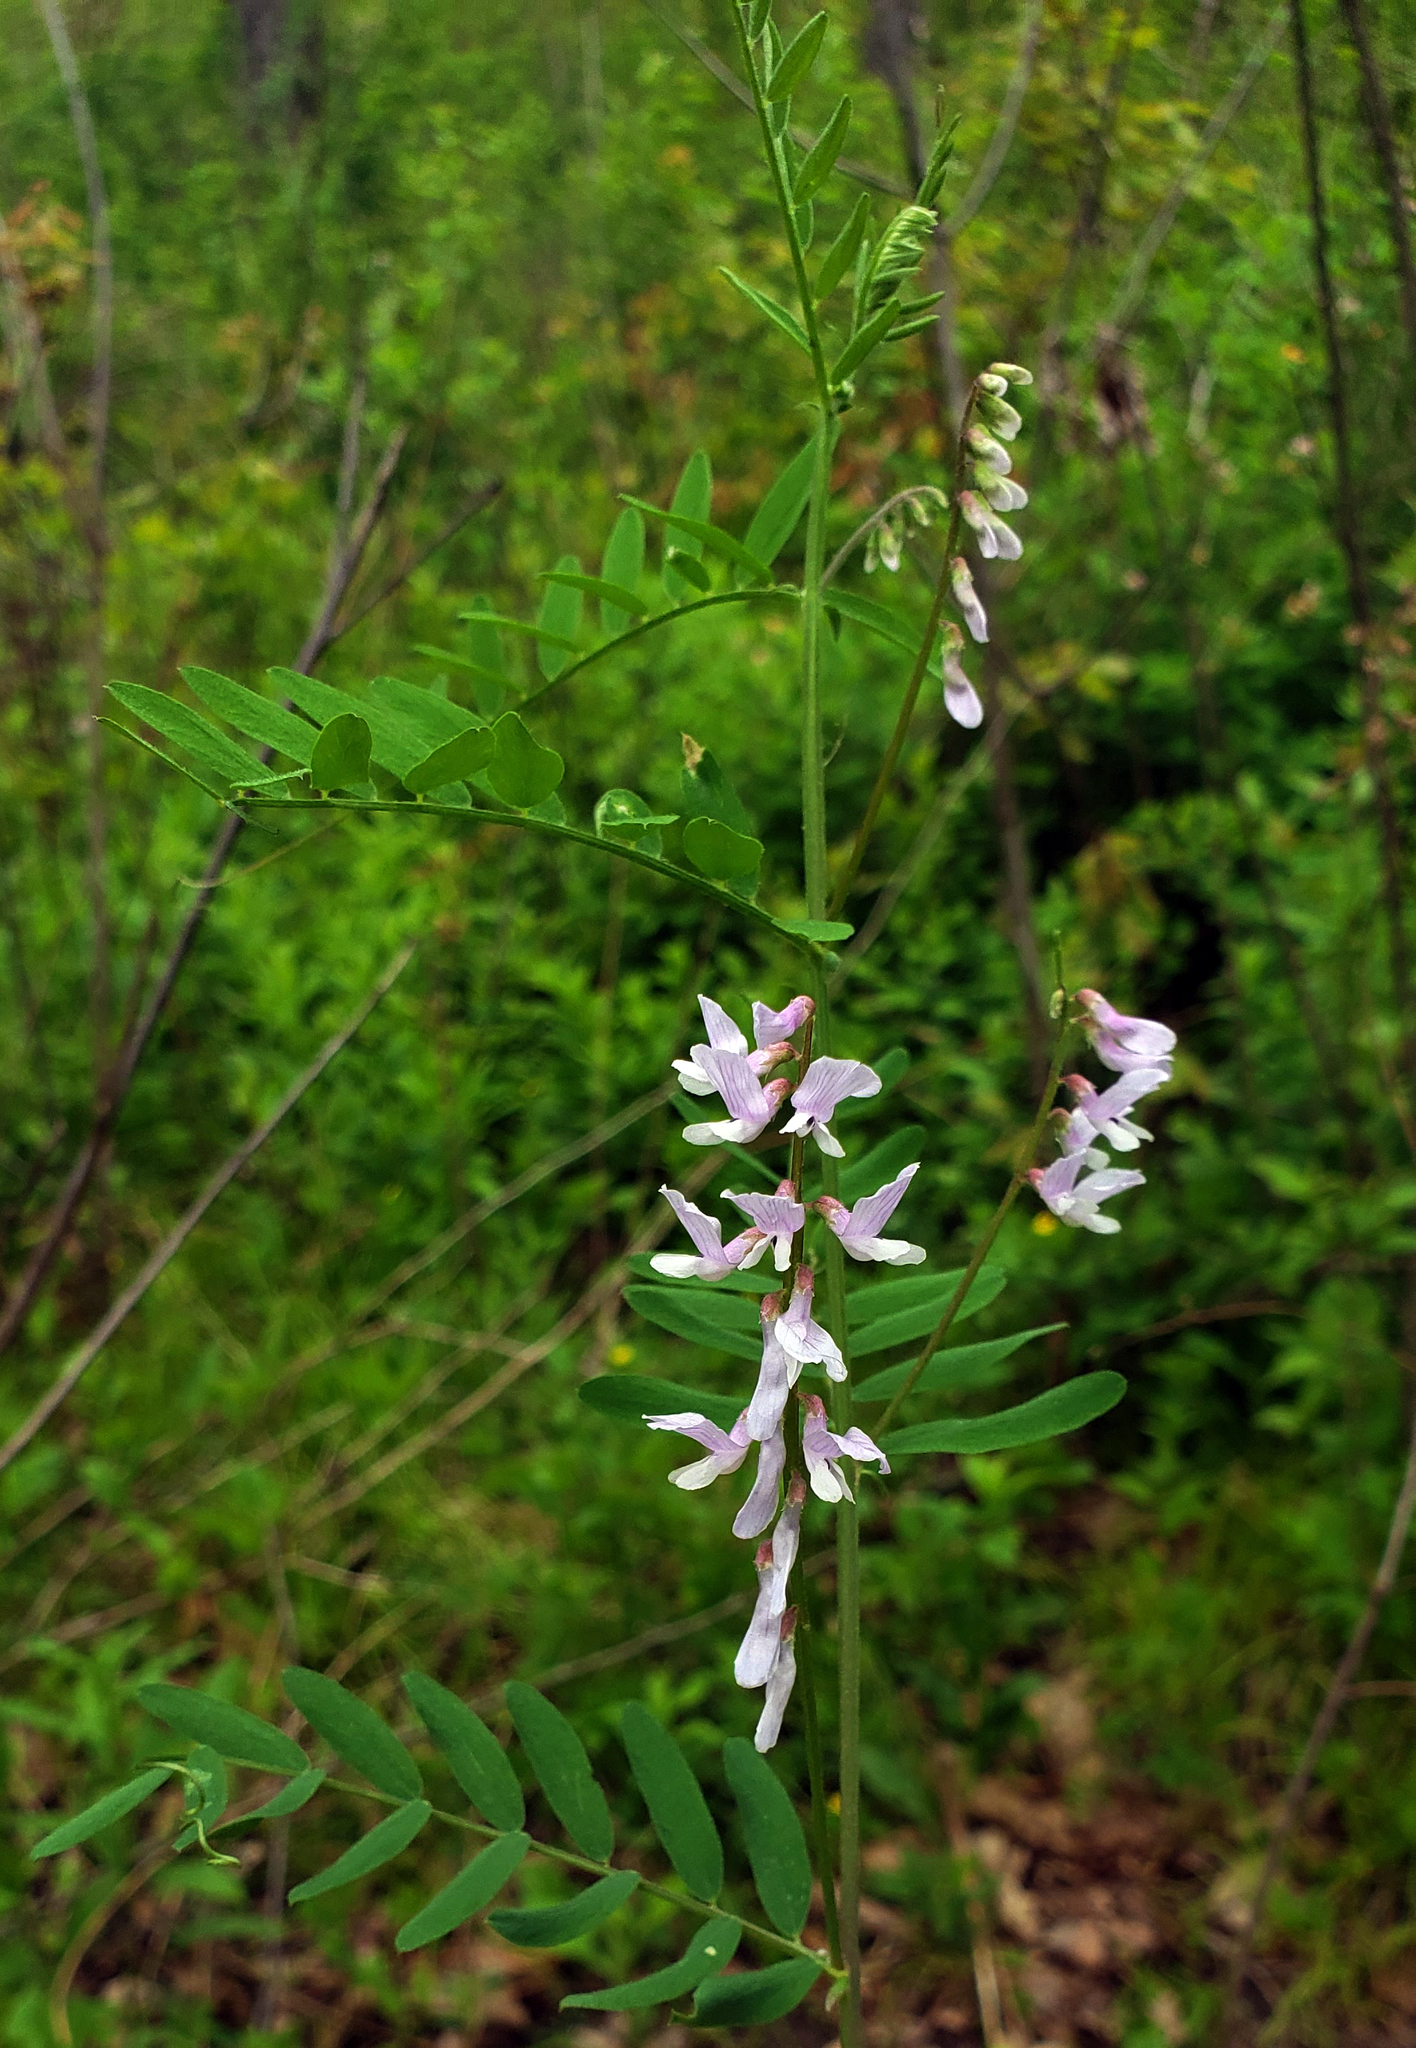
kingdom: Plantae
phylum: Tracheophyta
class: Magnoliopsida
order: Fabales
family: Fabaceae
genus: Vicia
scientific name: Vicia caroliniana
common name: Carolina vetch
